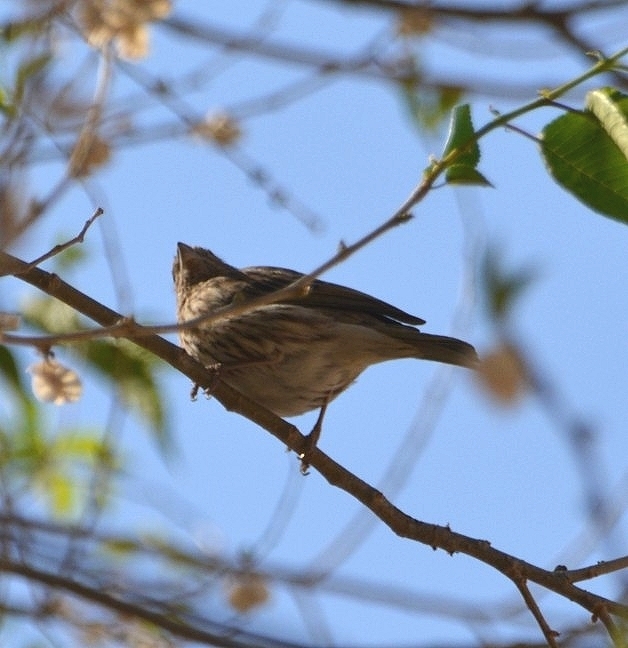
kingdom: Animalia
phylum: Chordata
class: Aves
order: Passeriformes
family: Thraupidae
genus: Sicalis
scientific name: Sicalis flaveola
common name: Saffron finch
